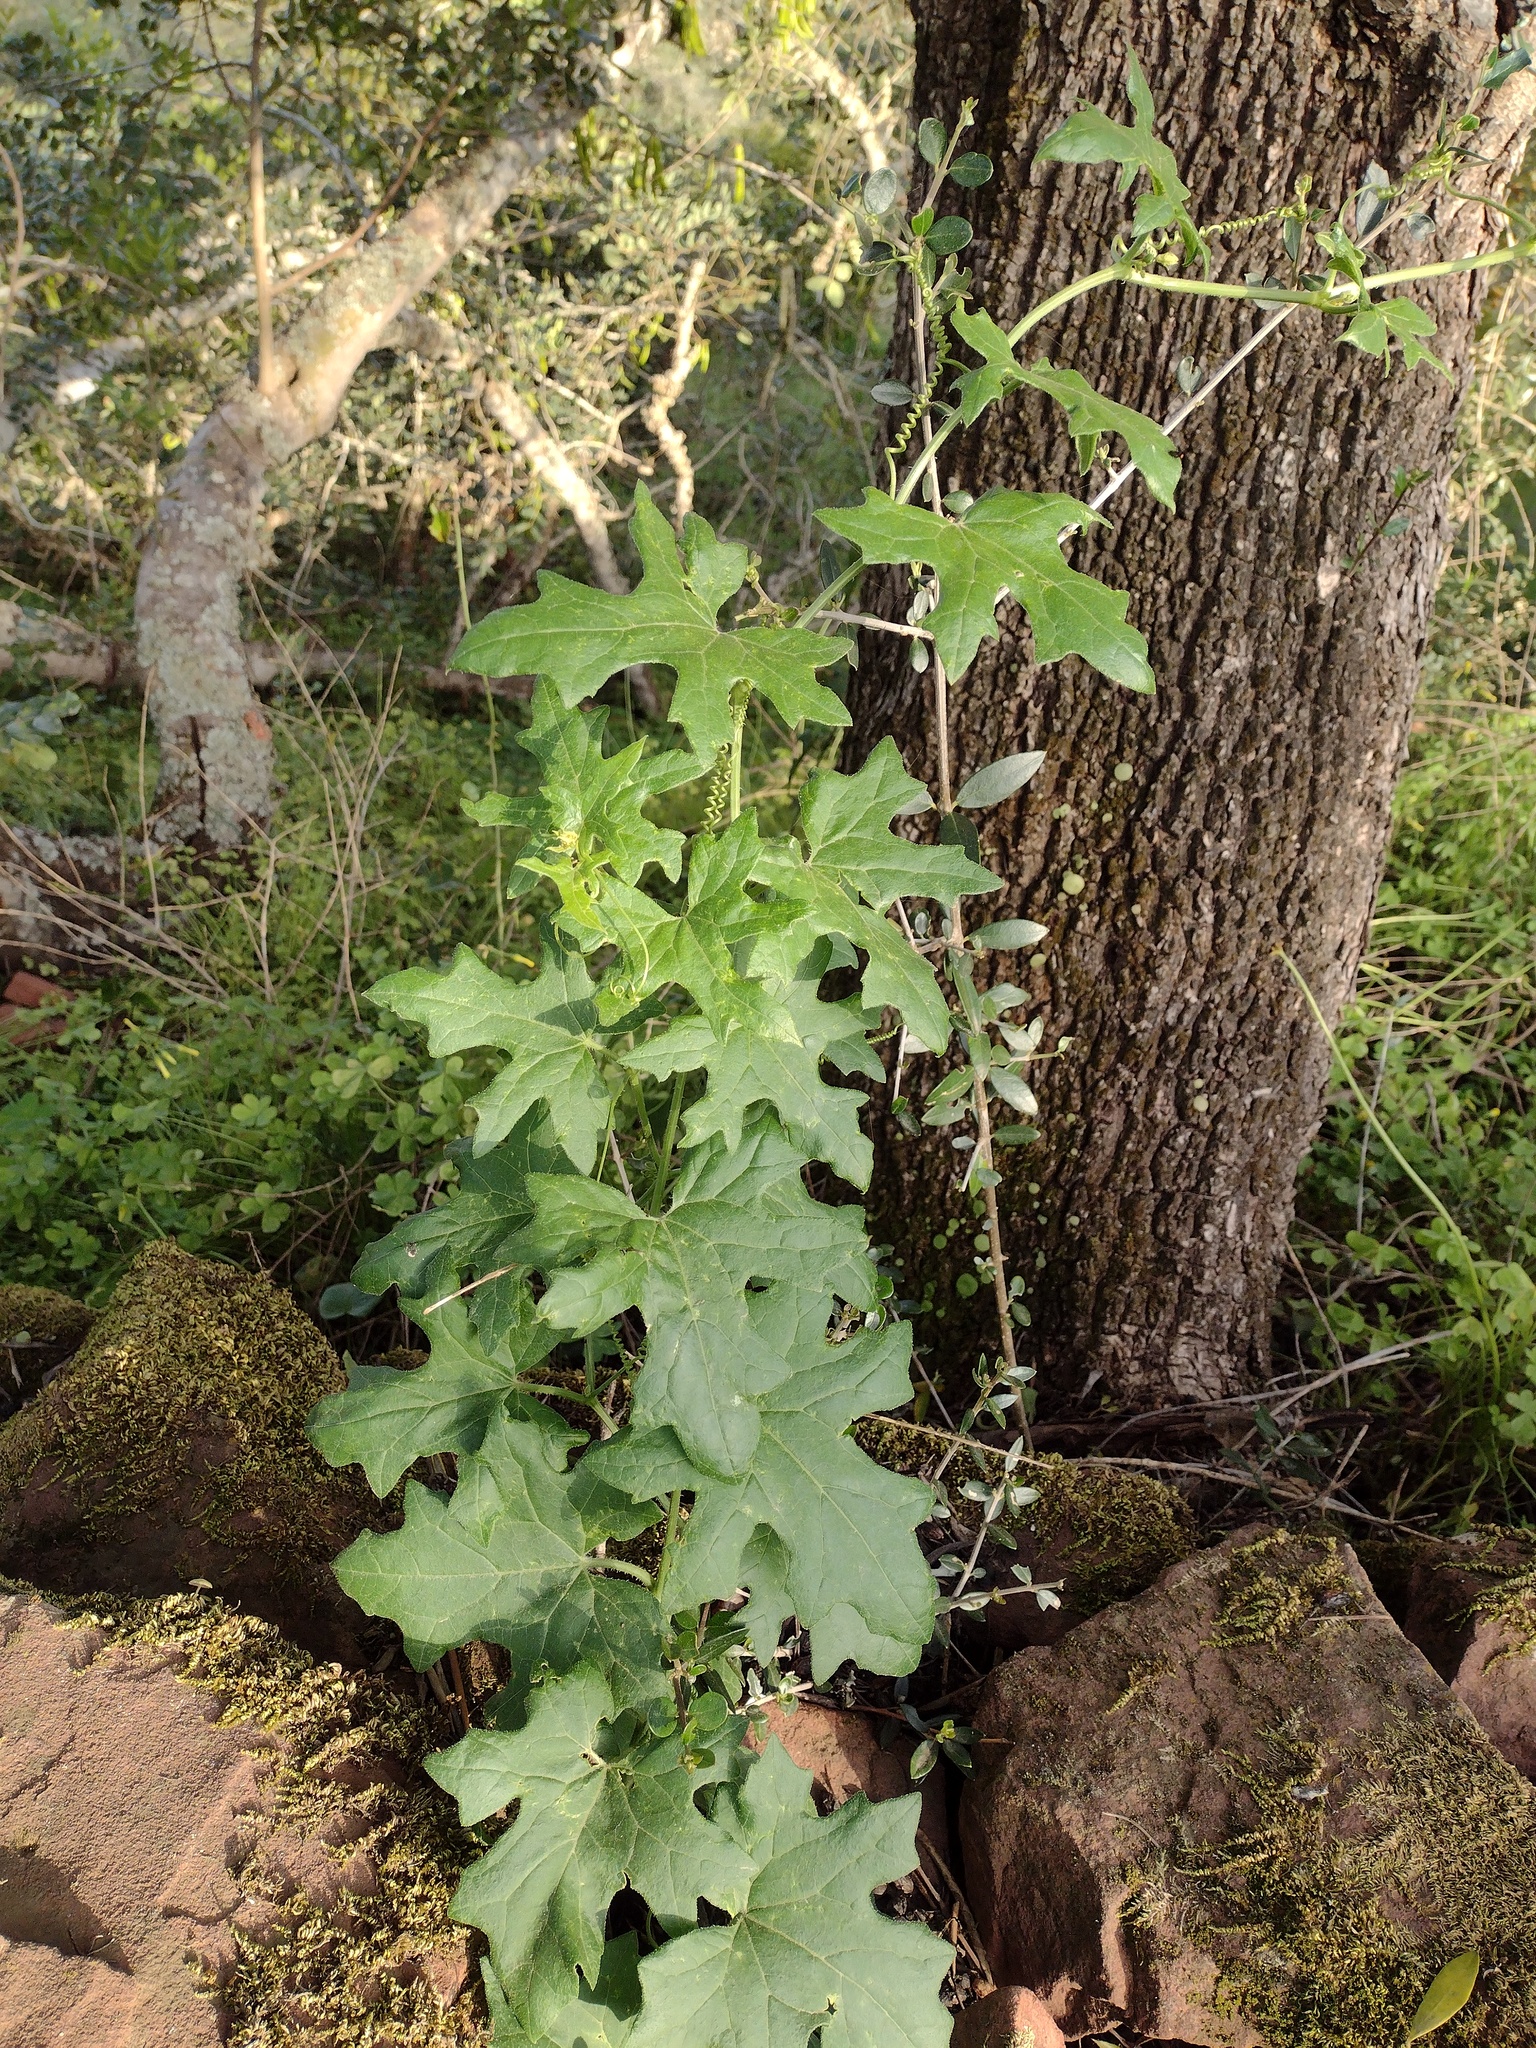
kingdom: Plantae
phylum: Tracheophyta
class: Magnoliopsida
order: Cucurbitales
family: Cucurbitaceae
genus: Bryonia
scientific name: Bryonia cretica
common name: Cretan bryony
